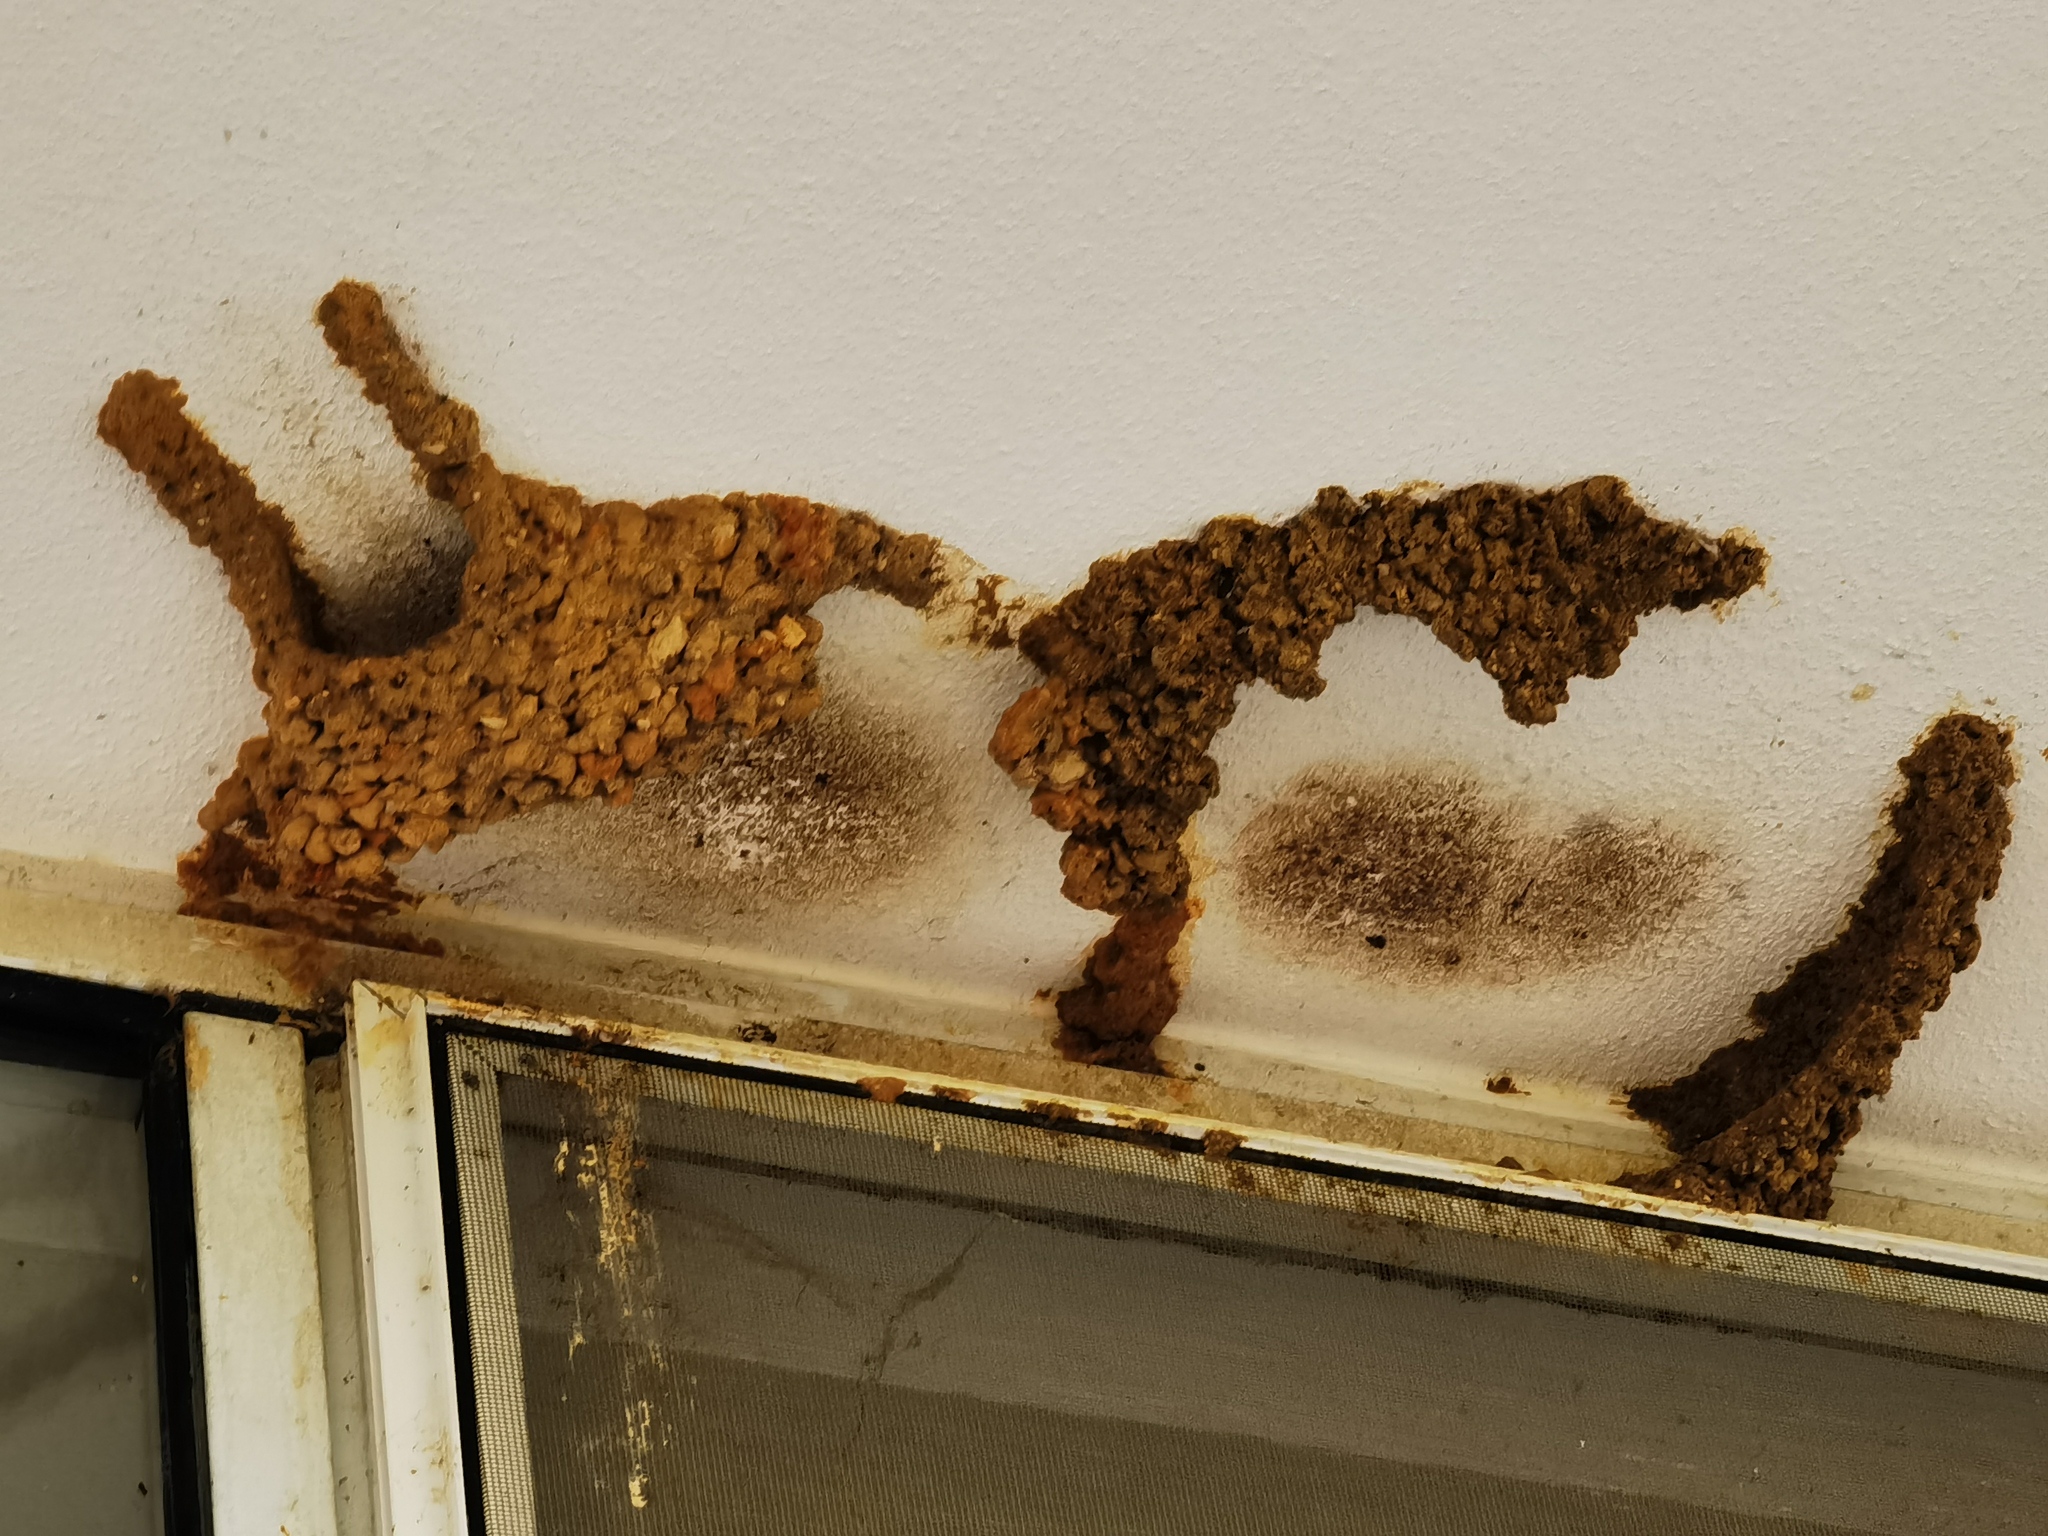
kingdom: Animalia
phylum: Chordata
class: Aves
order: Passeriformes
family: Hirundinidae
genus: Cecropis
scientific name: Cecropis daurica
